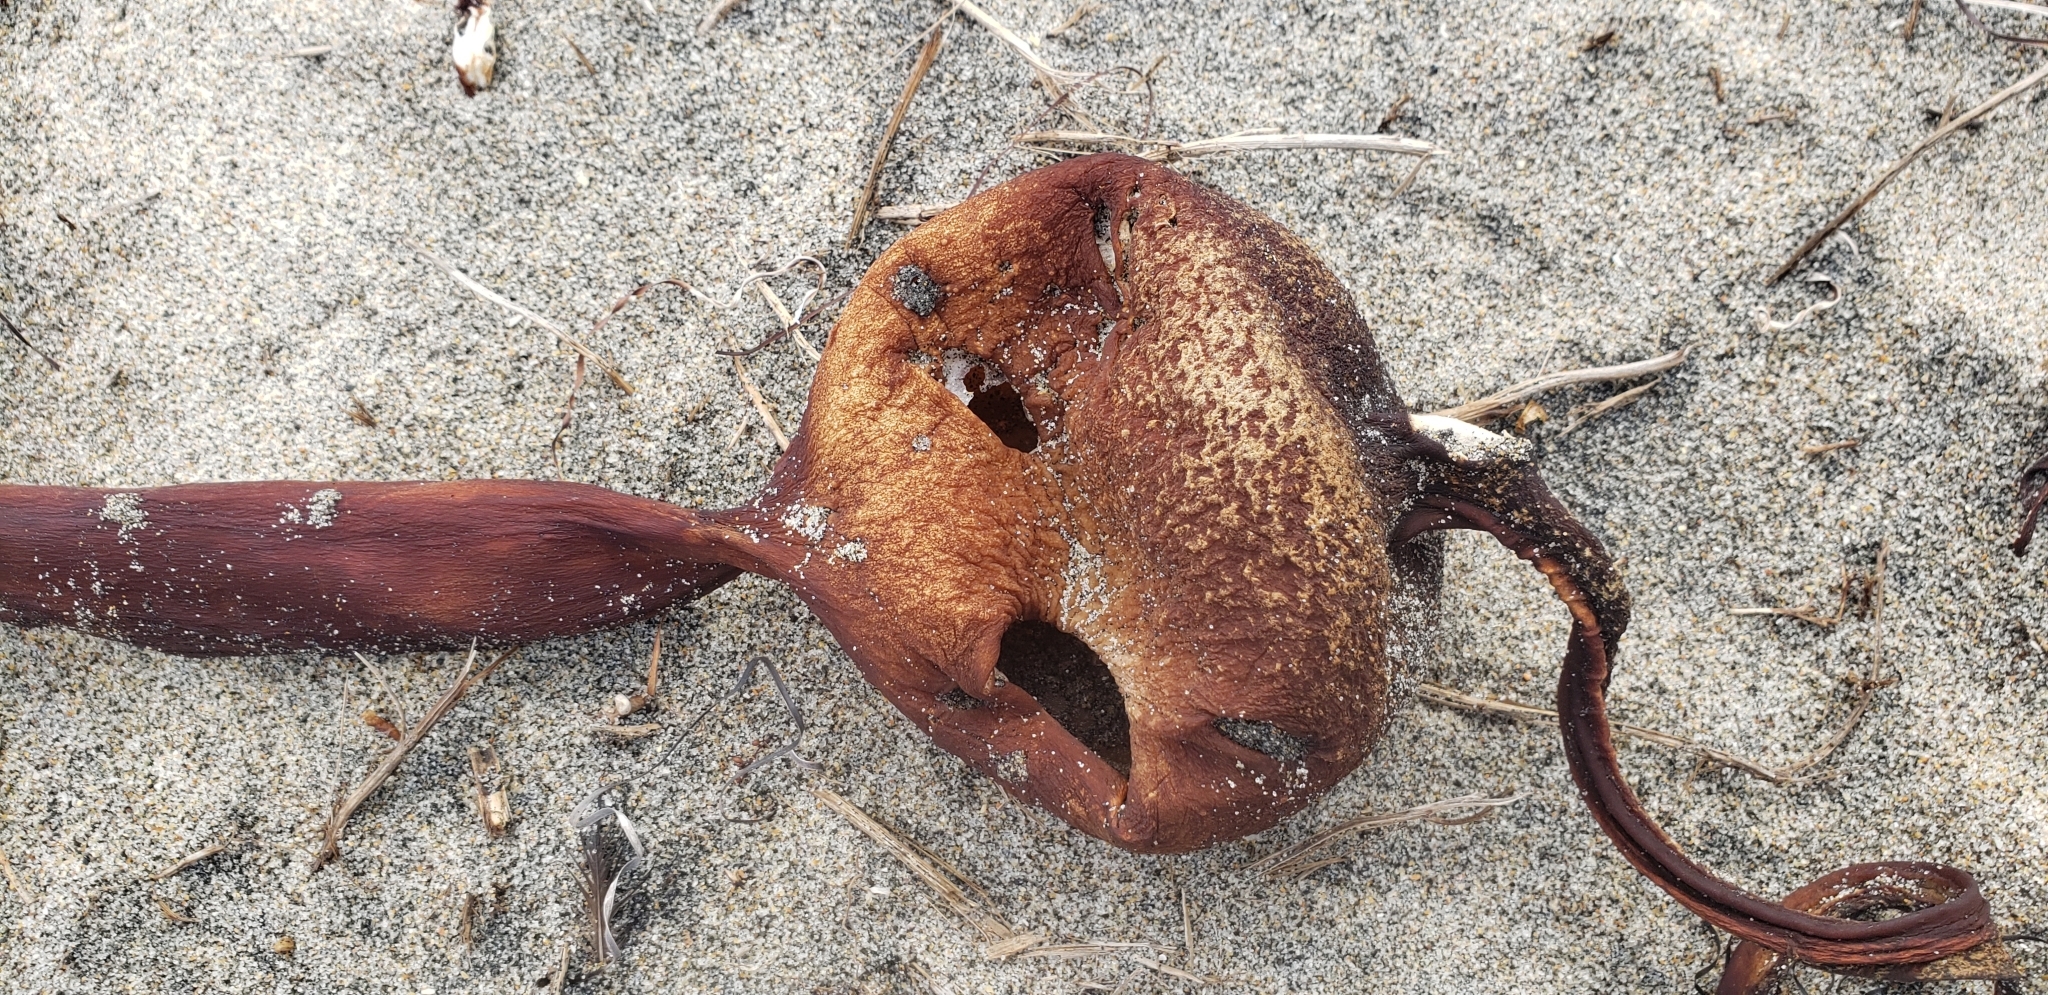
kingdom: Chromista
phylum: Ochrophyta
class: Phaeophyceae
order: Laminariales
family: Laminariaceae
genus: Pelagophycus
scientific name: Pelagophycus porra
